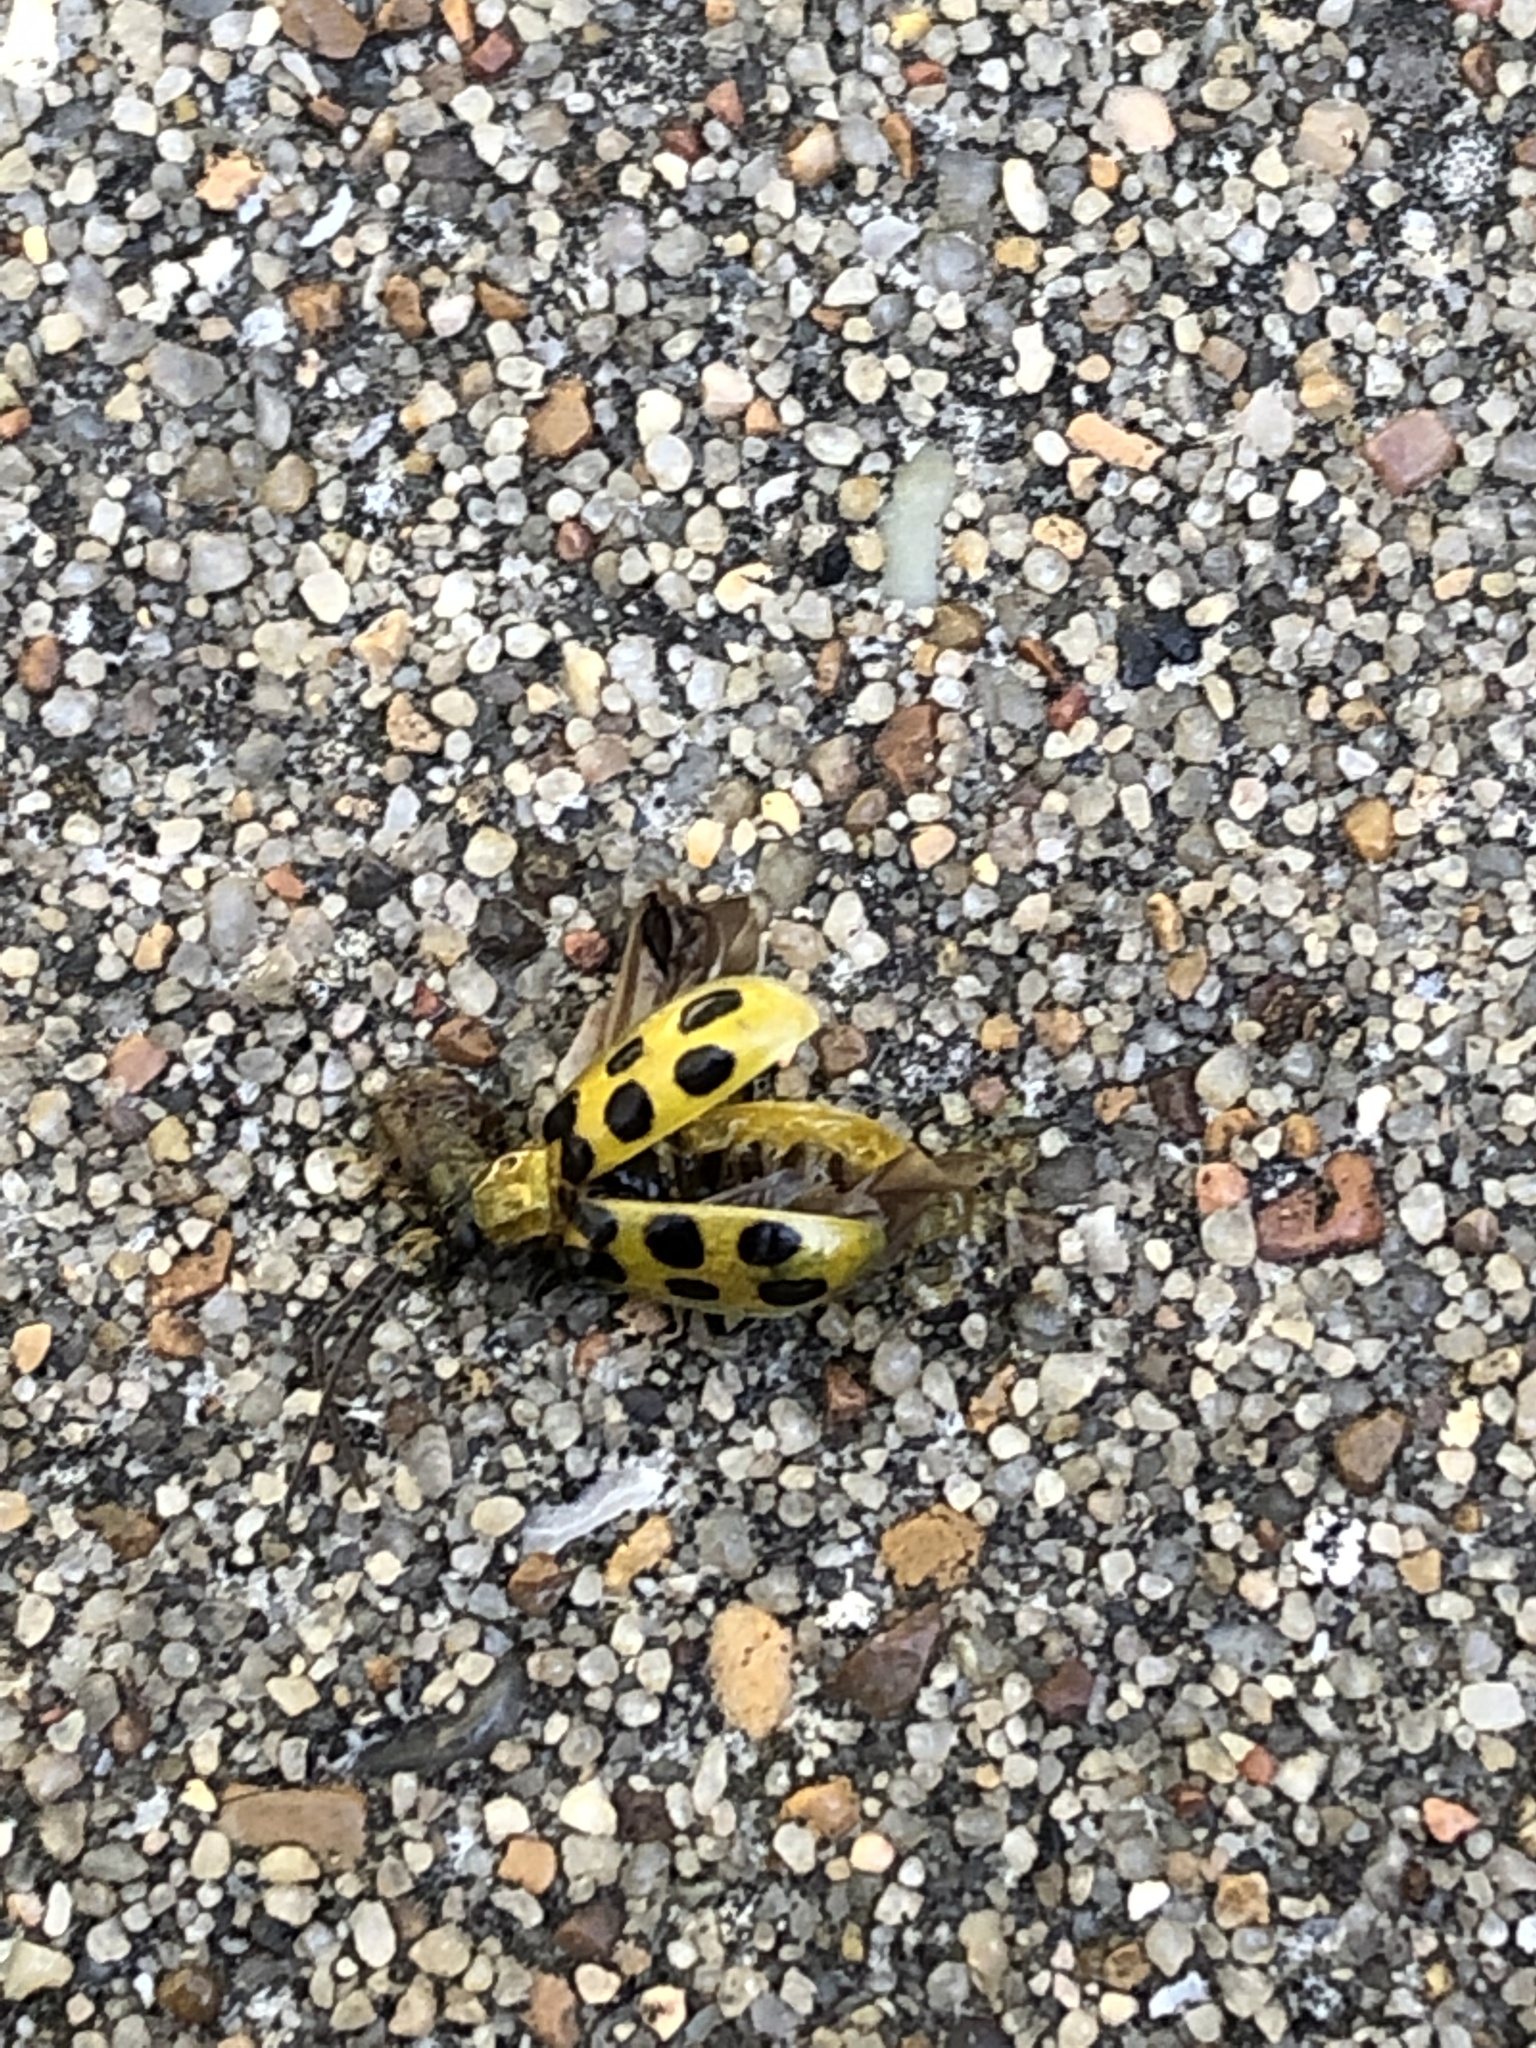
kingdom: Animalia
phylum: Arthropoda
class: Insecta
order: Coleoptera
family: Chrysomelidae
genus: Diabrotica
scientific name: Diabrotica undecimpunctata
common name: Spotted cucumber beetle
